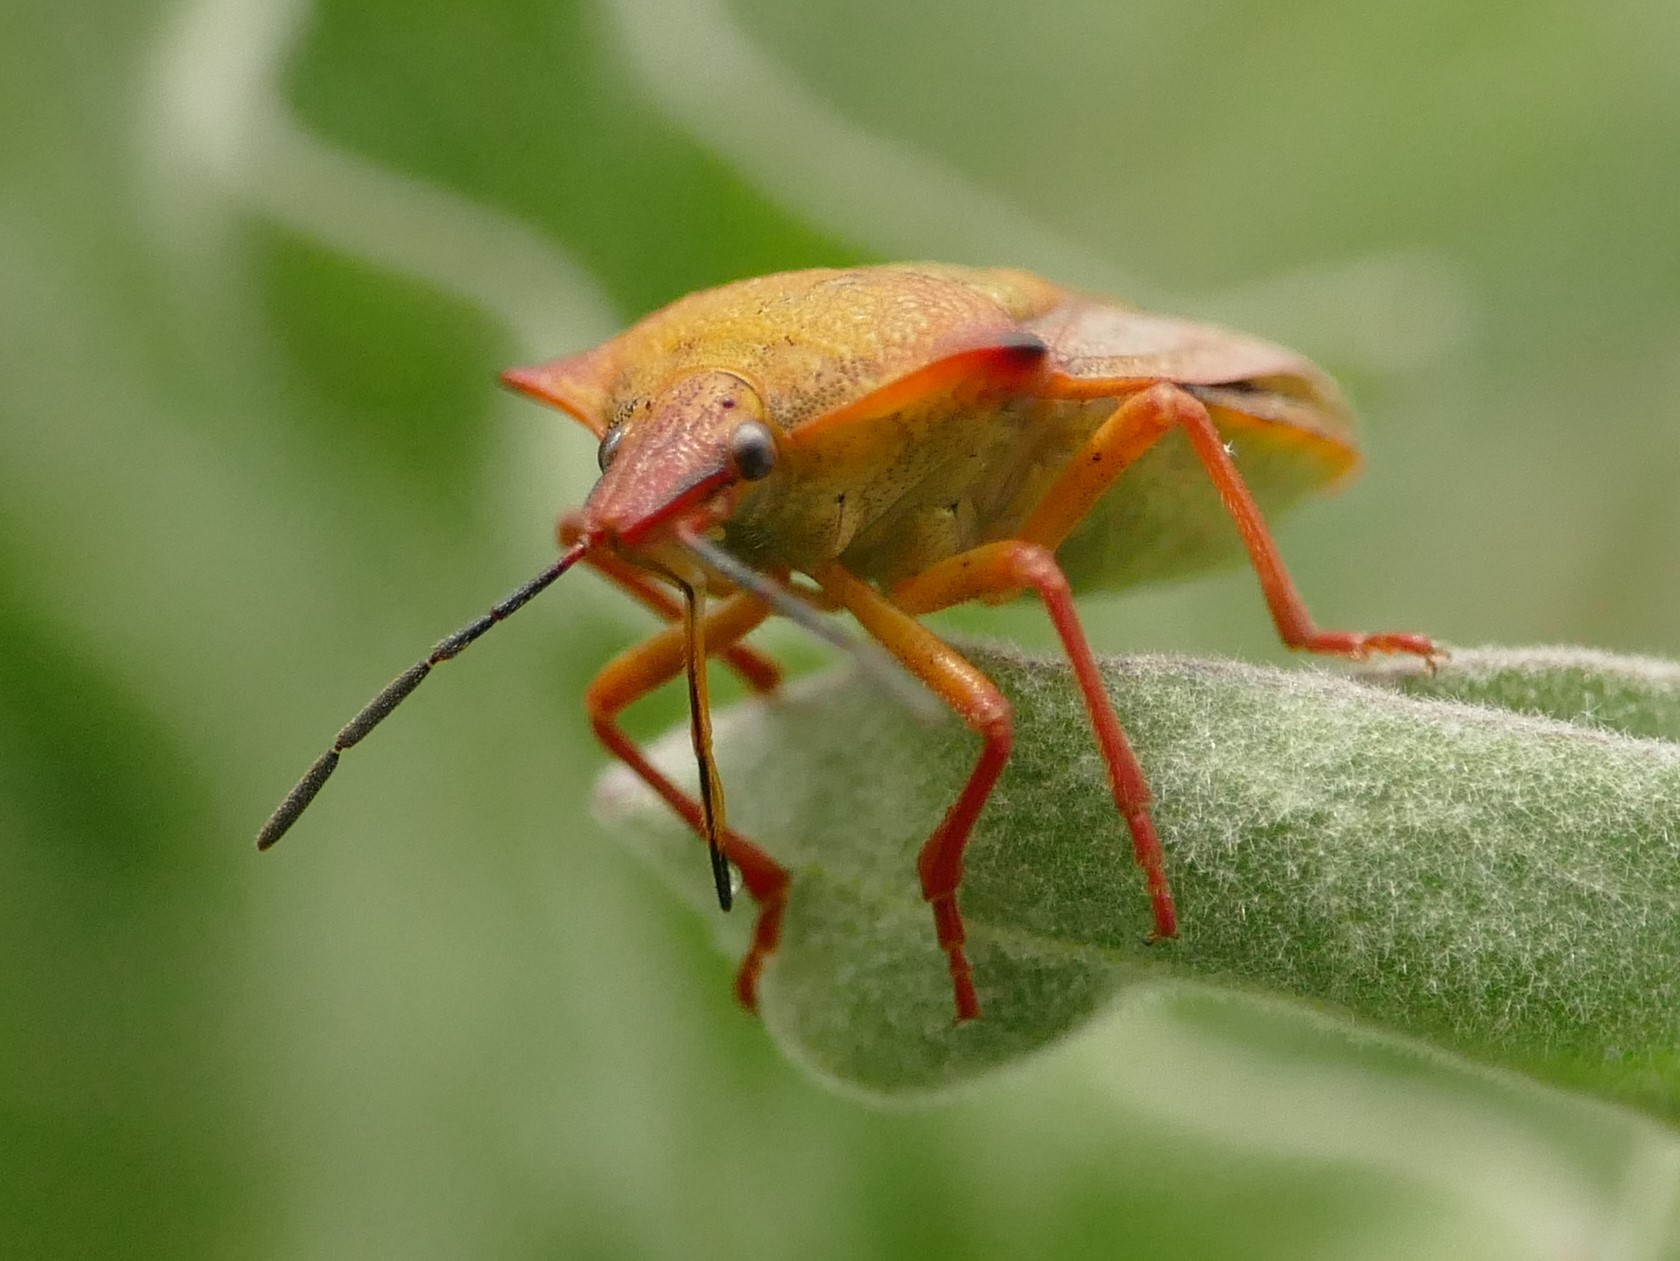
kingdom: Animalia
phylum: Arthropoda
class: Insecta
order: Hemiptera
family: Pentatomidae
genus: Carpocoris
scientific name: Carpocoris mediterraneus
